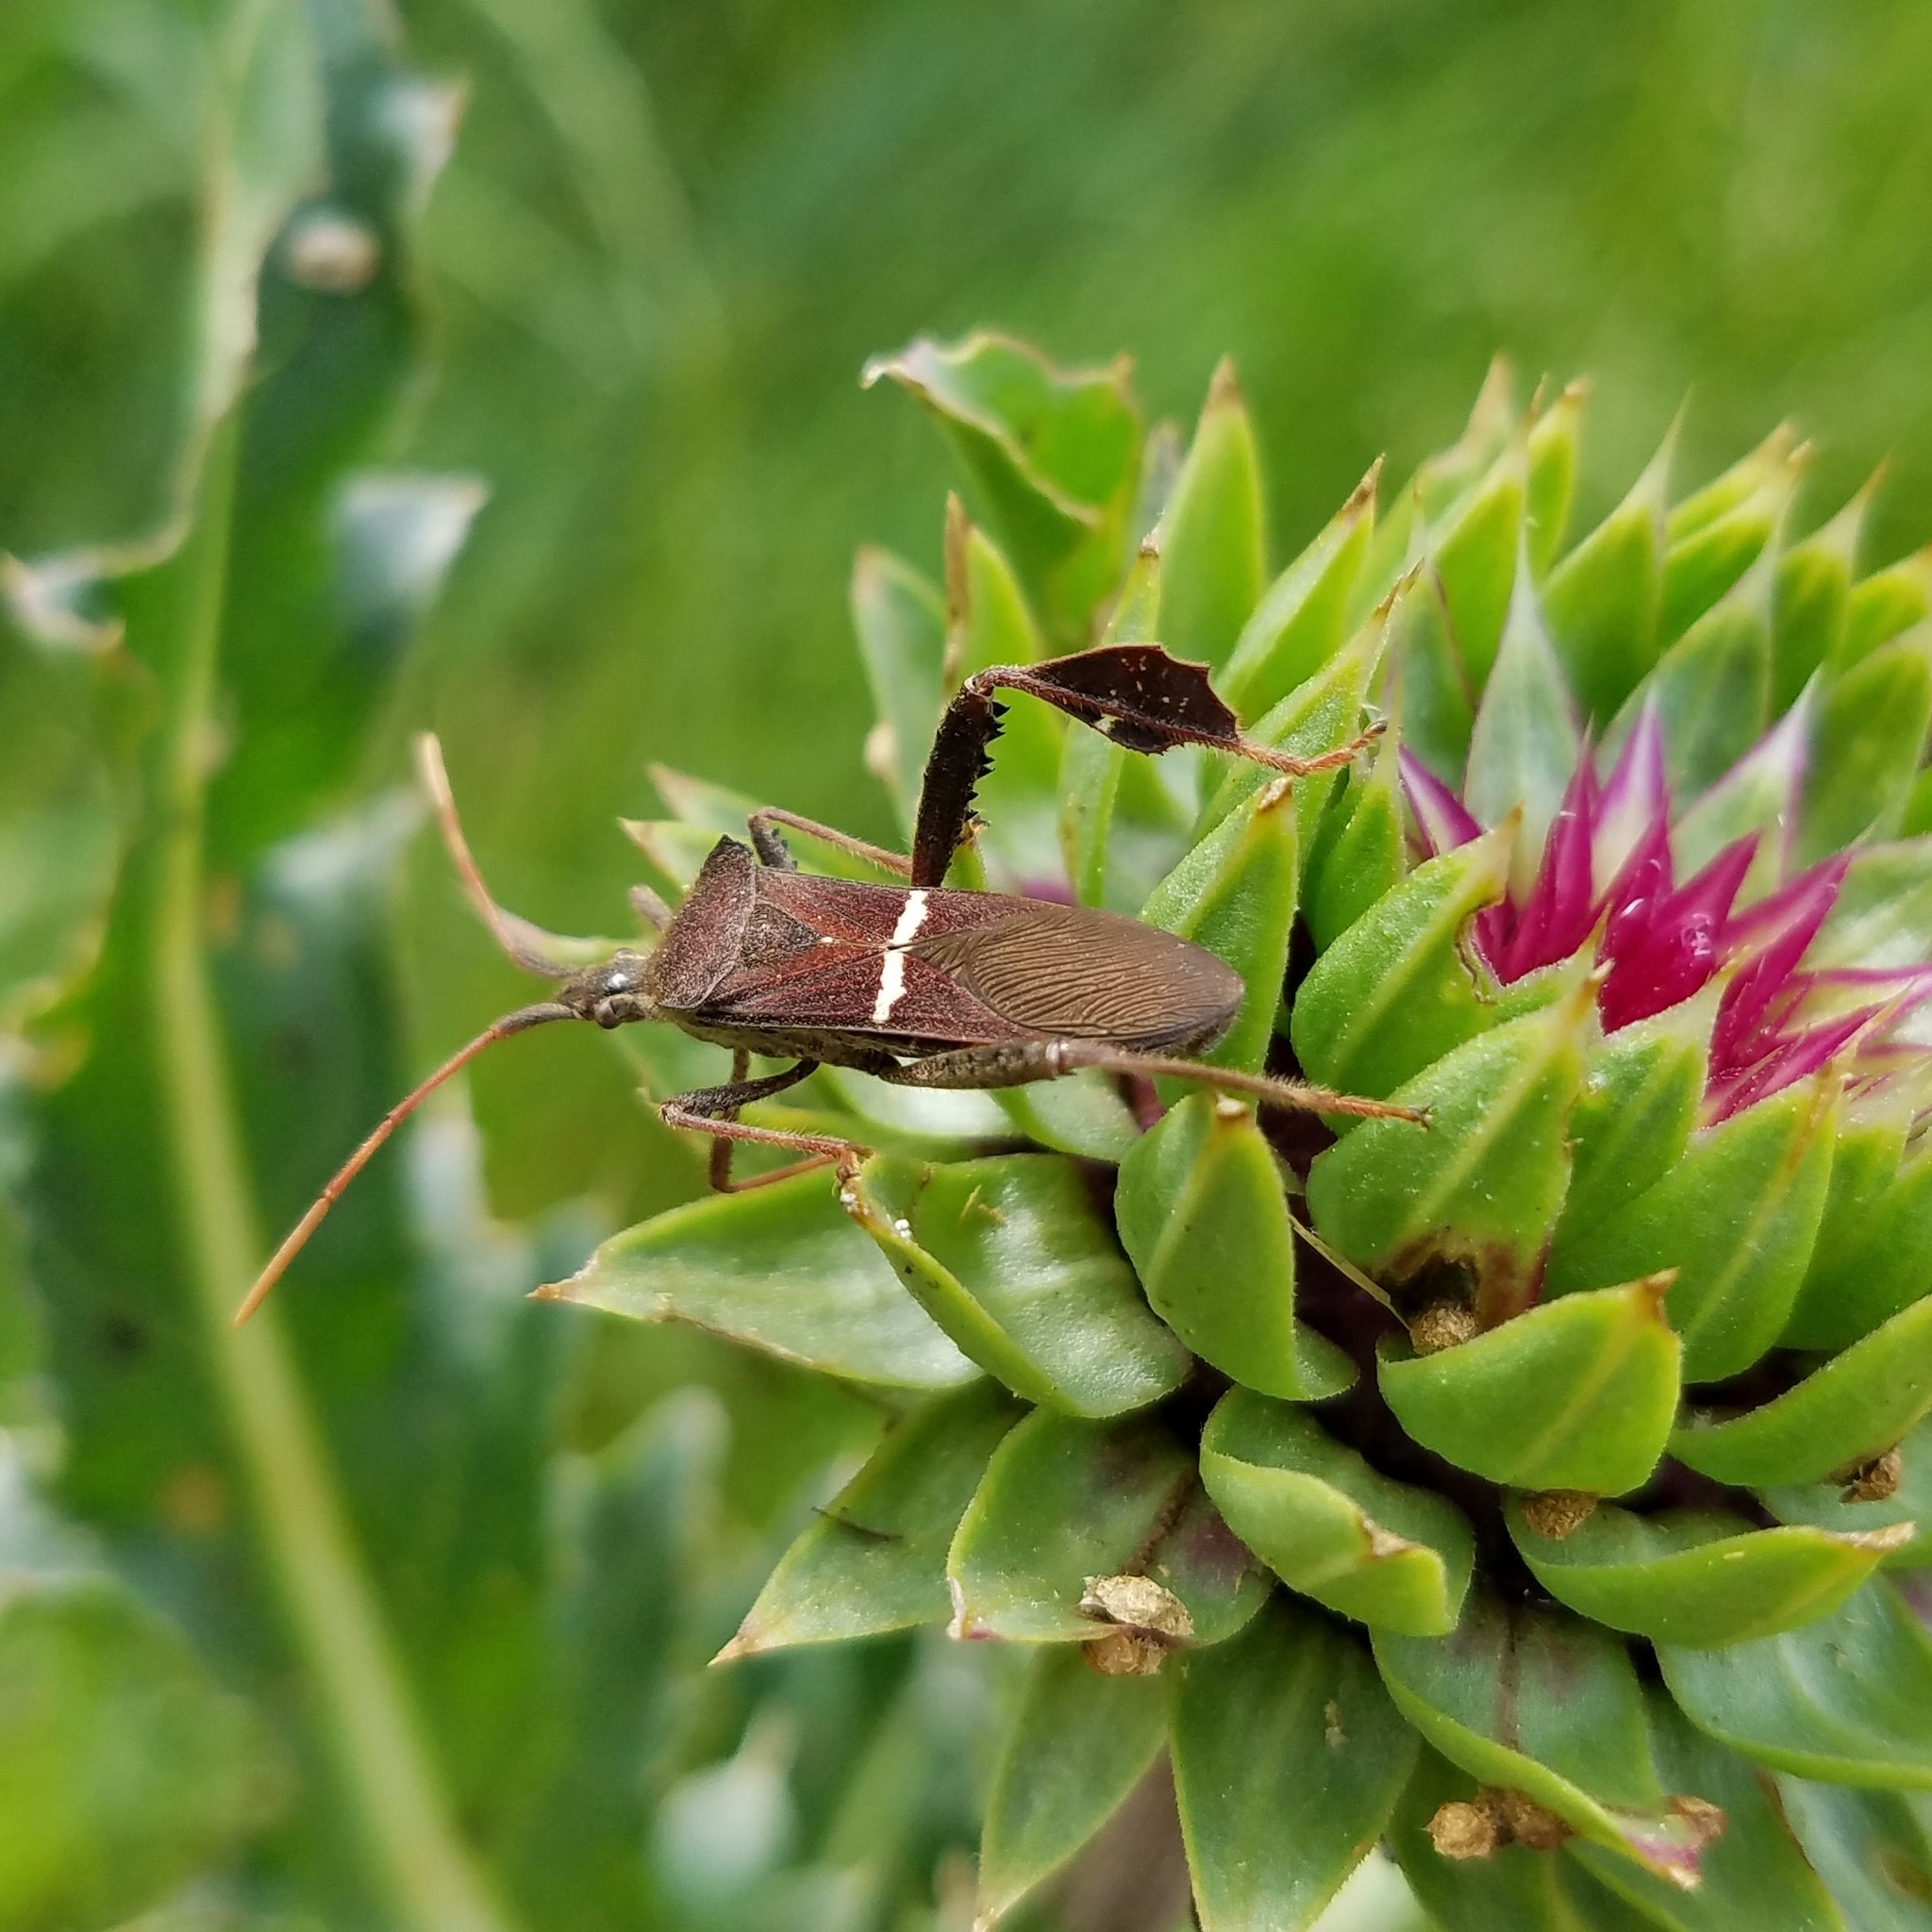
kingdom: Animalia
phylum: Arthropoda
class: Insecta
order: Hemiptera
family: Coreidae
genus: Leptoglossus
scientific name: Leptoglossus phyllopus
